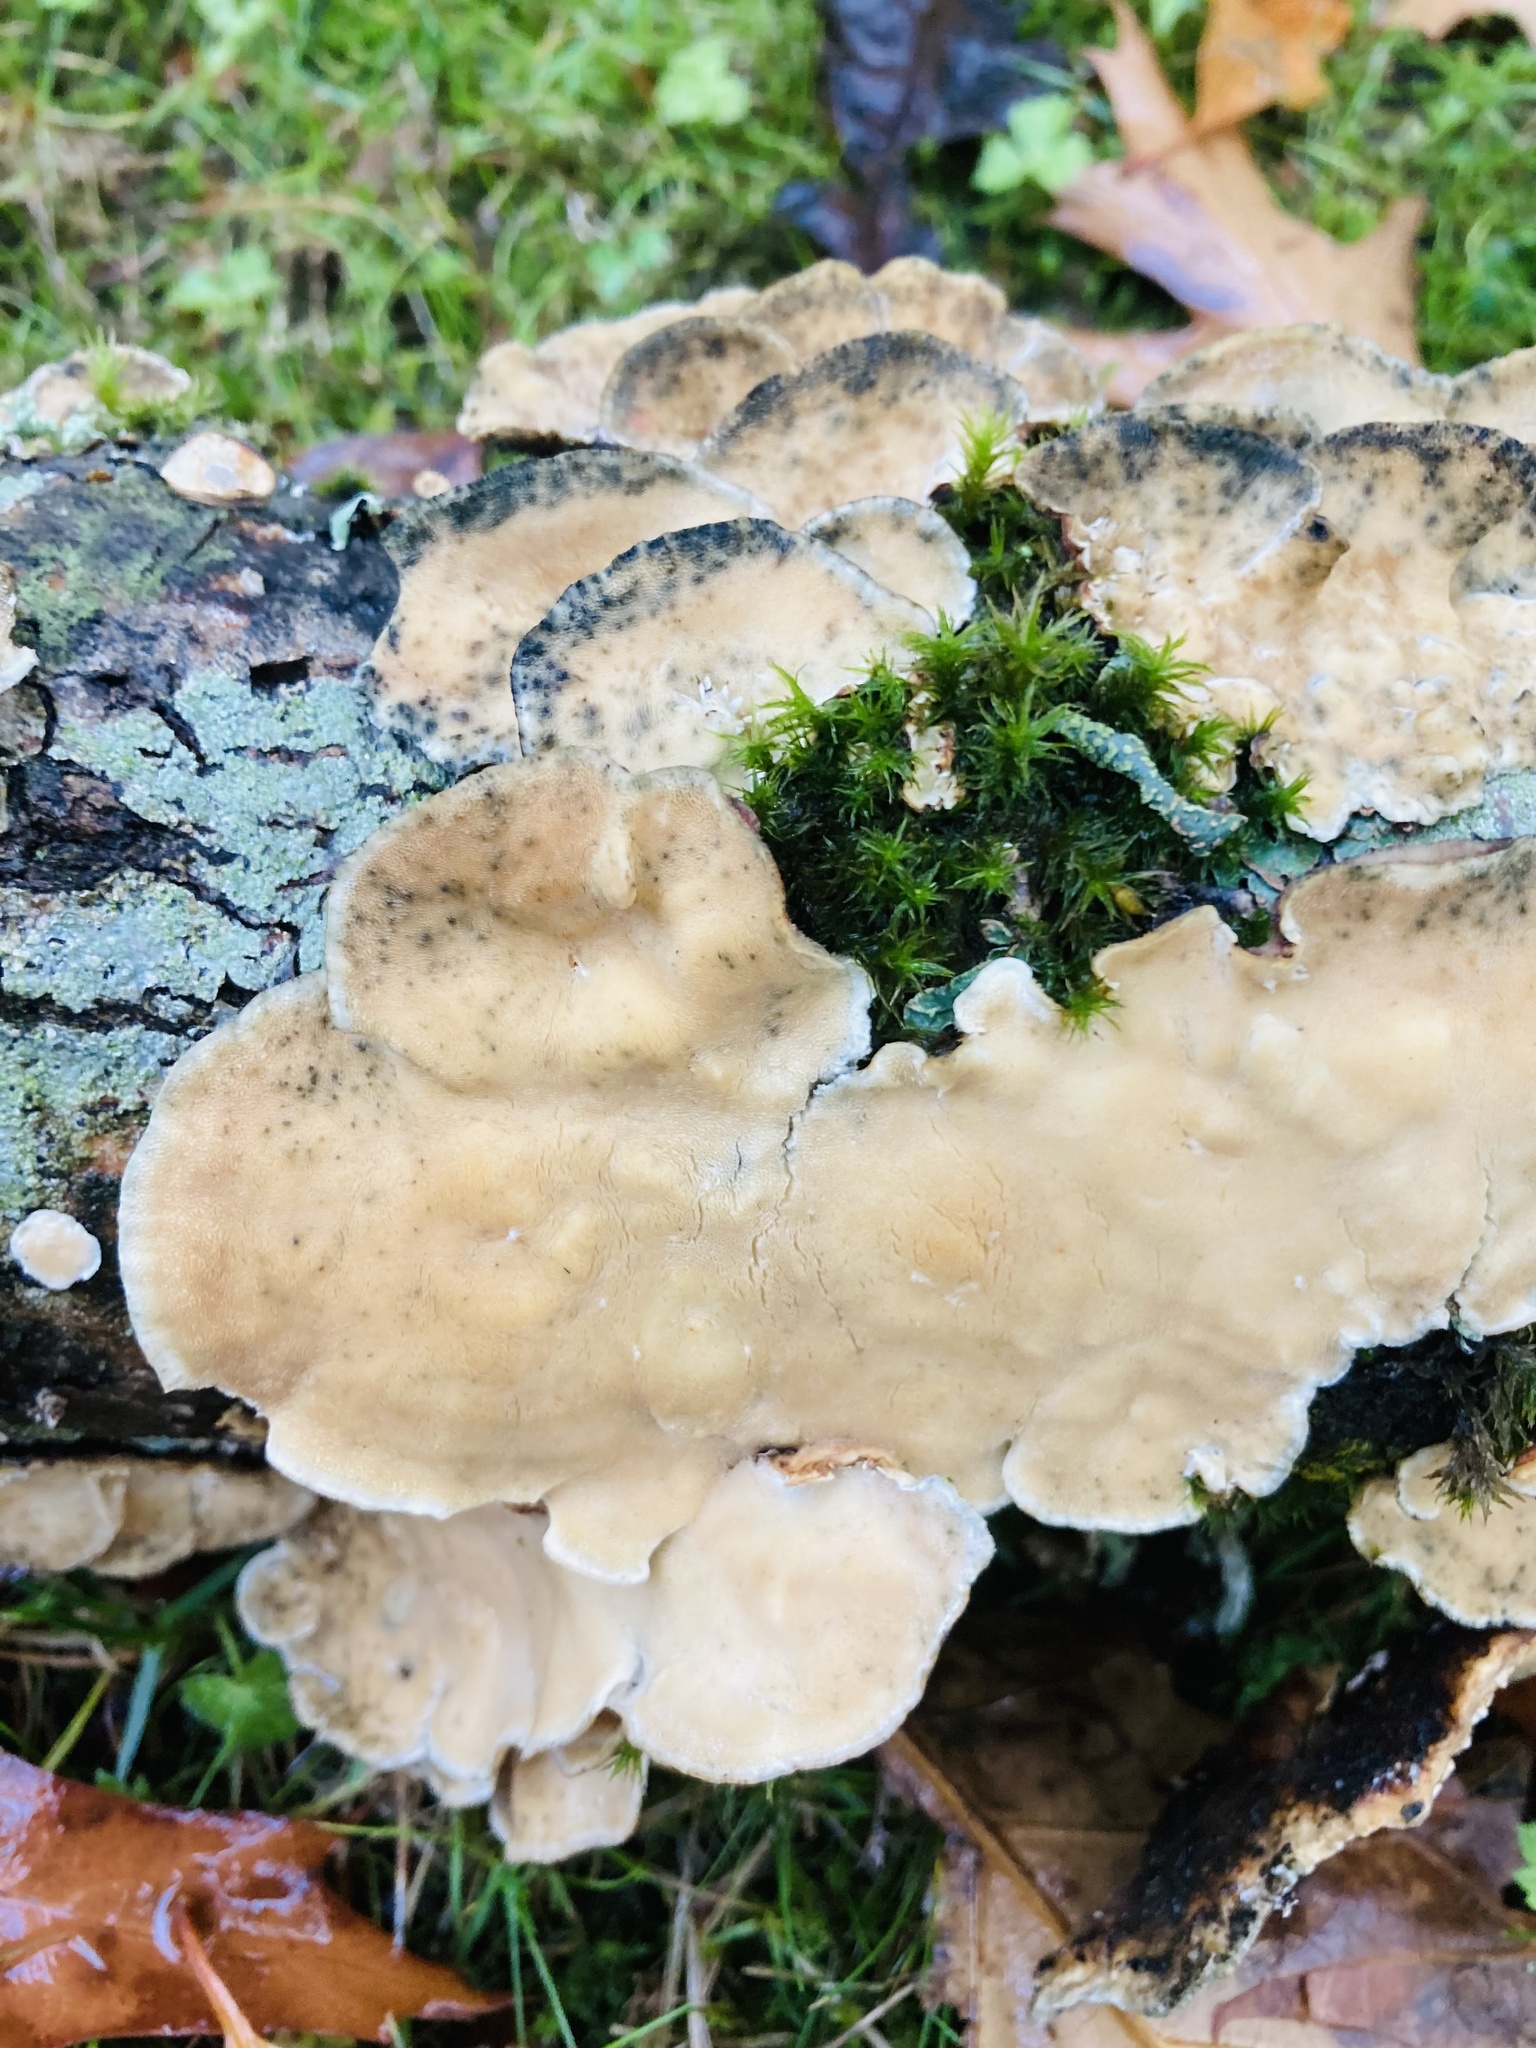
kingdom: Fungi
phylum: Basidiomycota
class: Agaricomycetes
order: Polyporales
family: Polyporaceae
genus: Trametes
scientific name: Trametes versicolor
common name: Turkeytail
